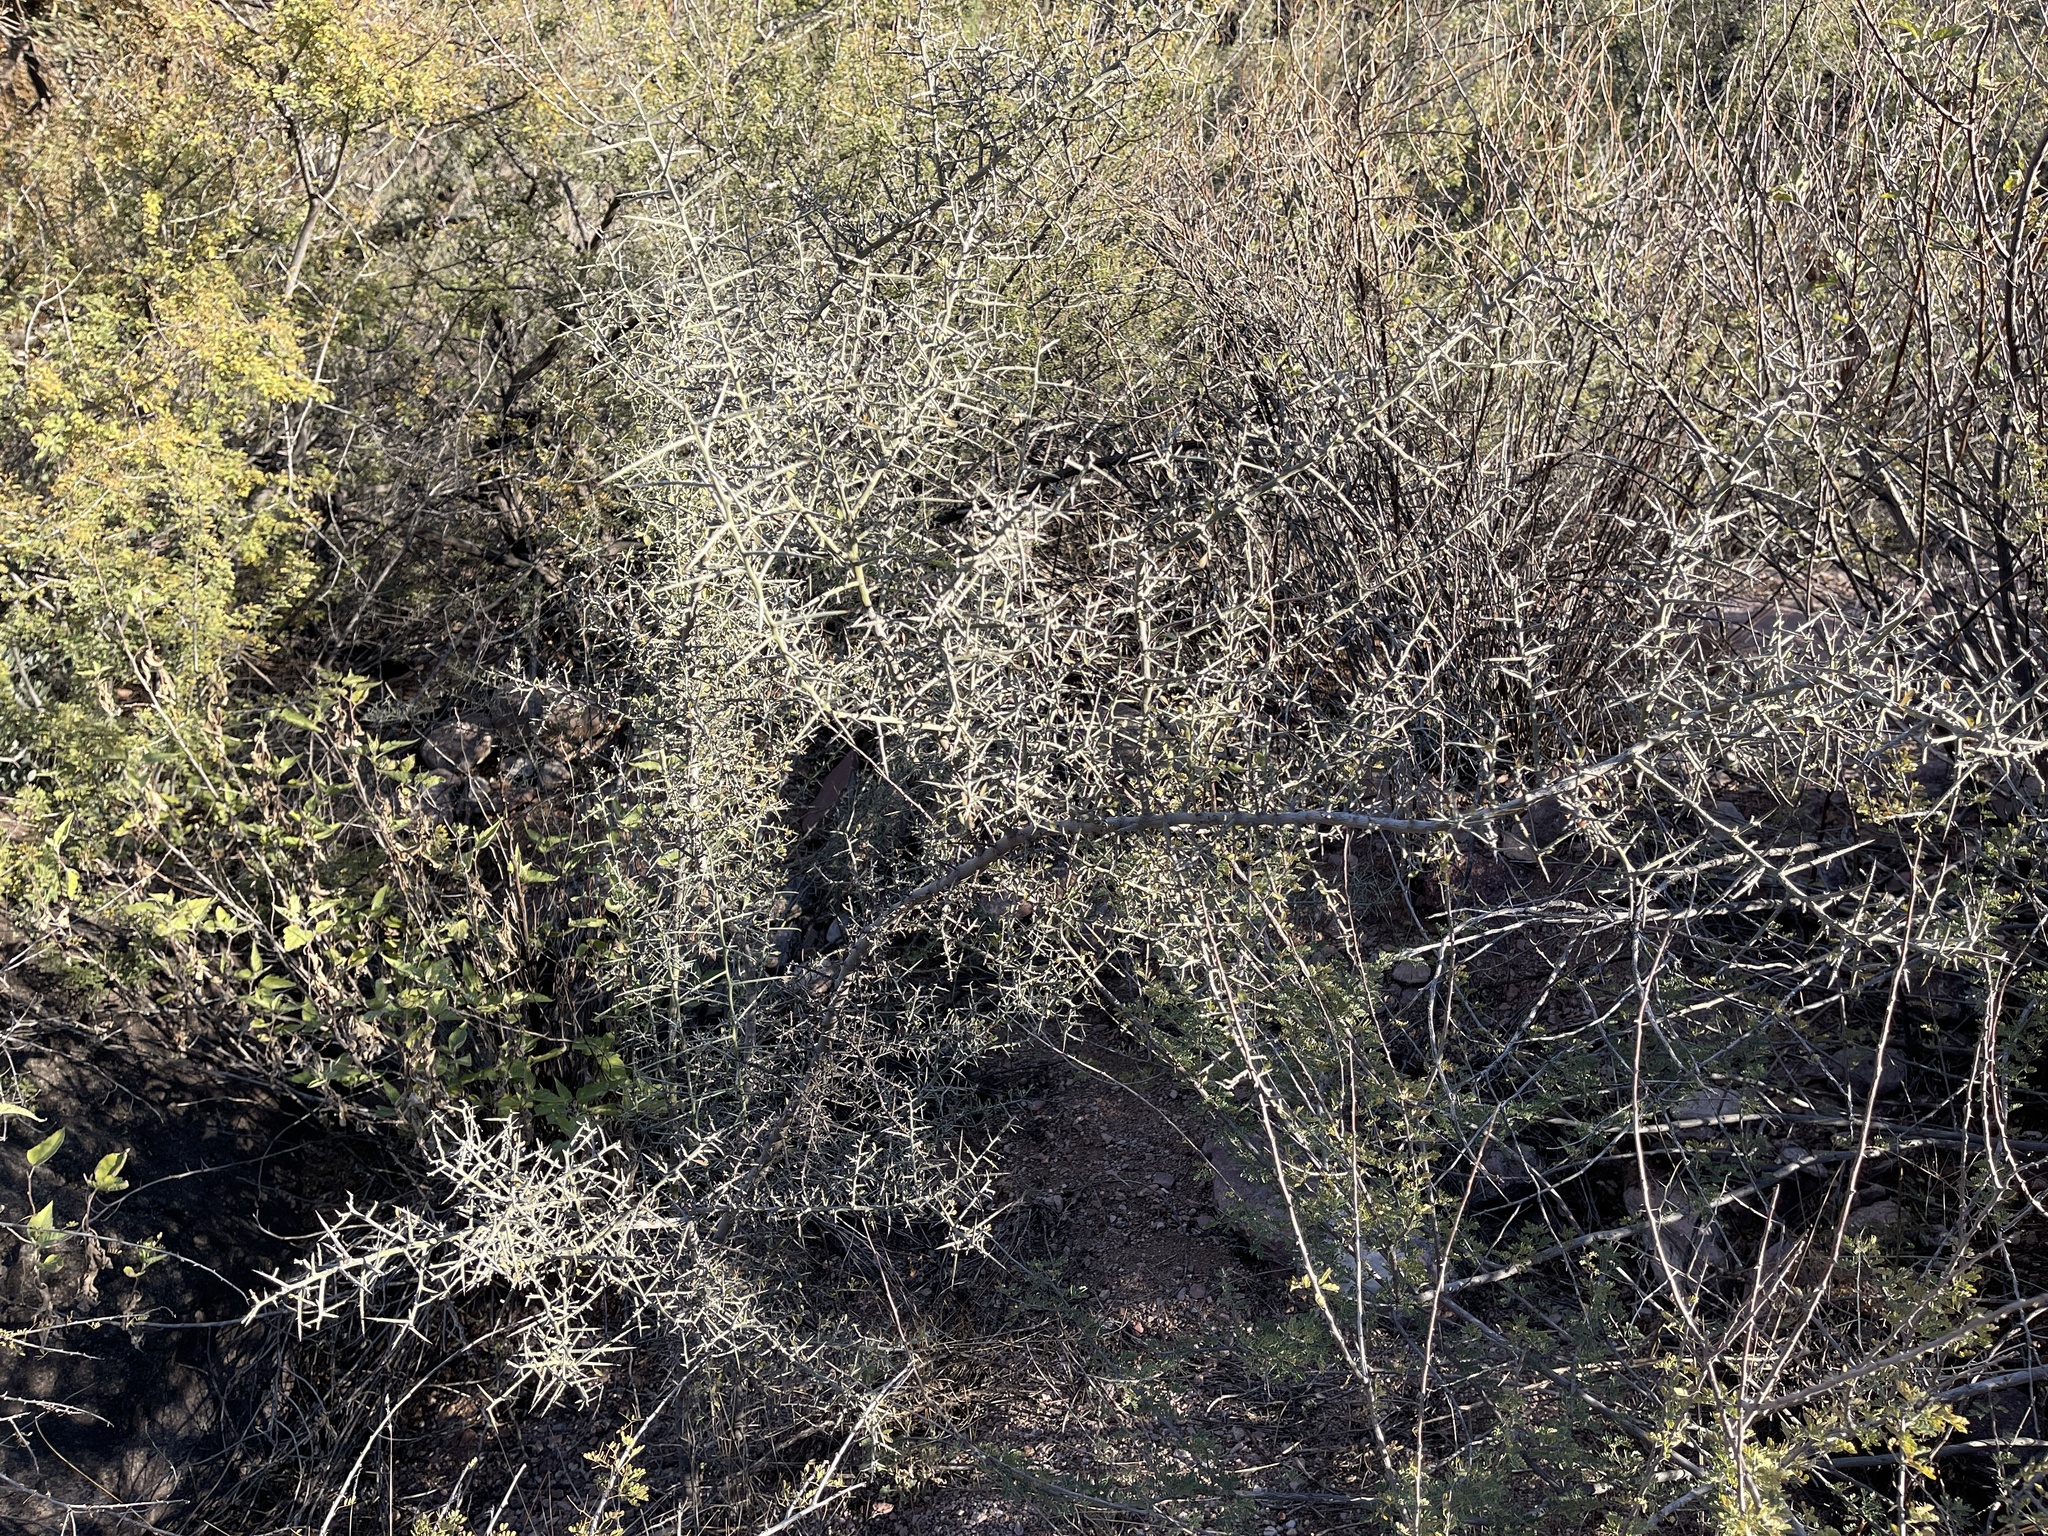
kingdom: Plantae
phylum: Tracheophyta
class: Magnoliopsida
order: Rosales
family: Rhamnaceae
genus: Sarcomphalus
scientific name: Sarcomphalus obtusifolius
